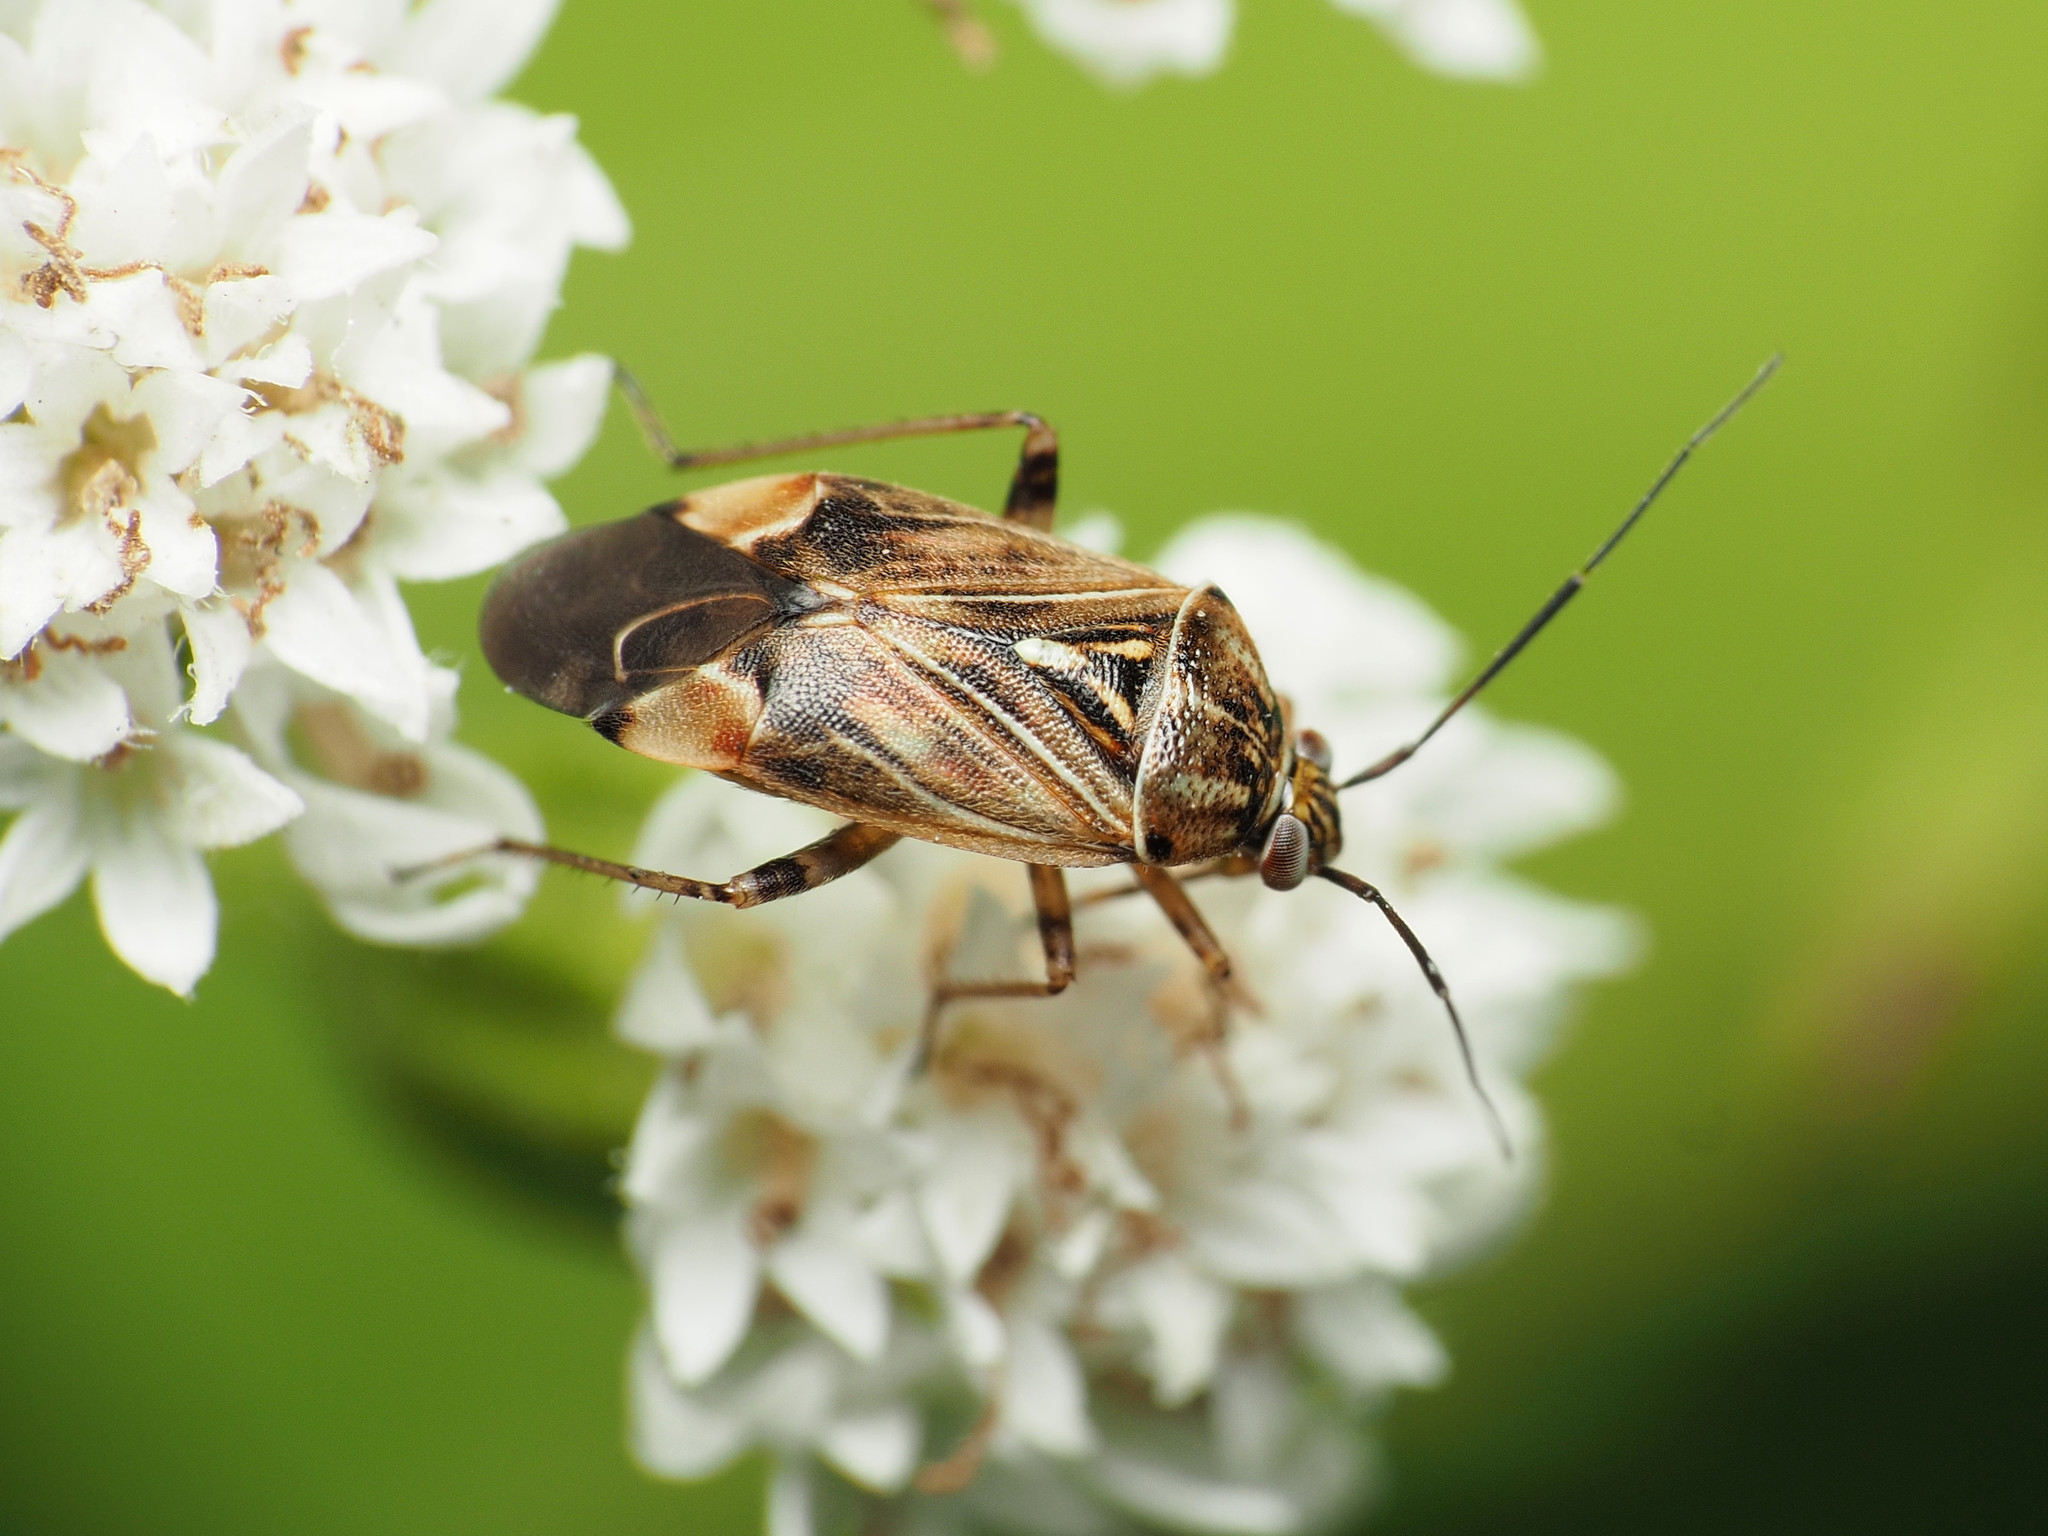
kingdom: Animalia
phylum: Arthropoda
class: Insecta
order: Hemiptera
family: Miridae
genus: Lygus
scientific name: Lygus lineolaris
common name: North american tarnished plant bug
